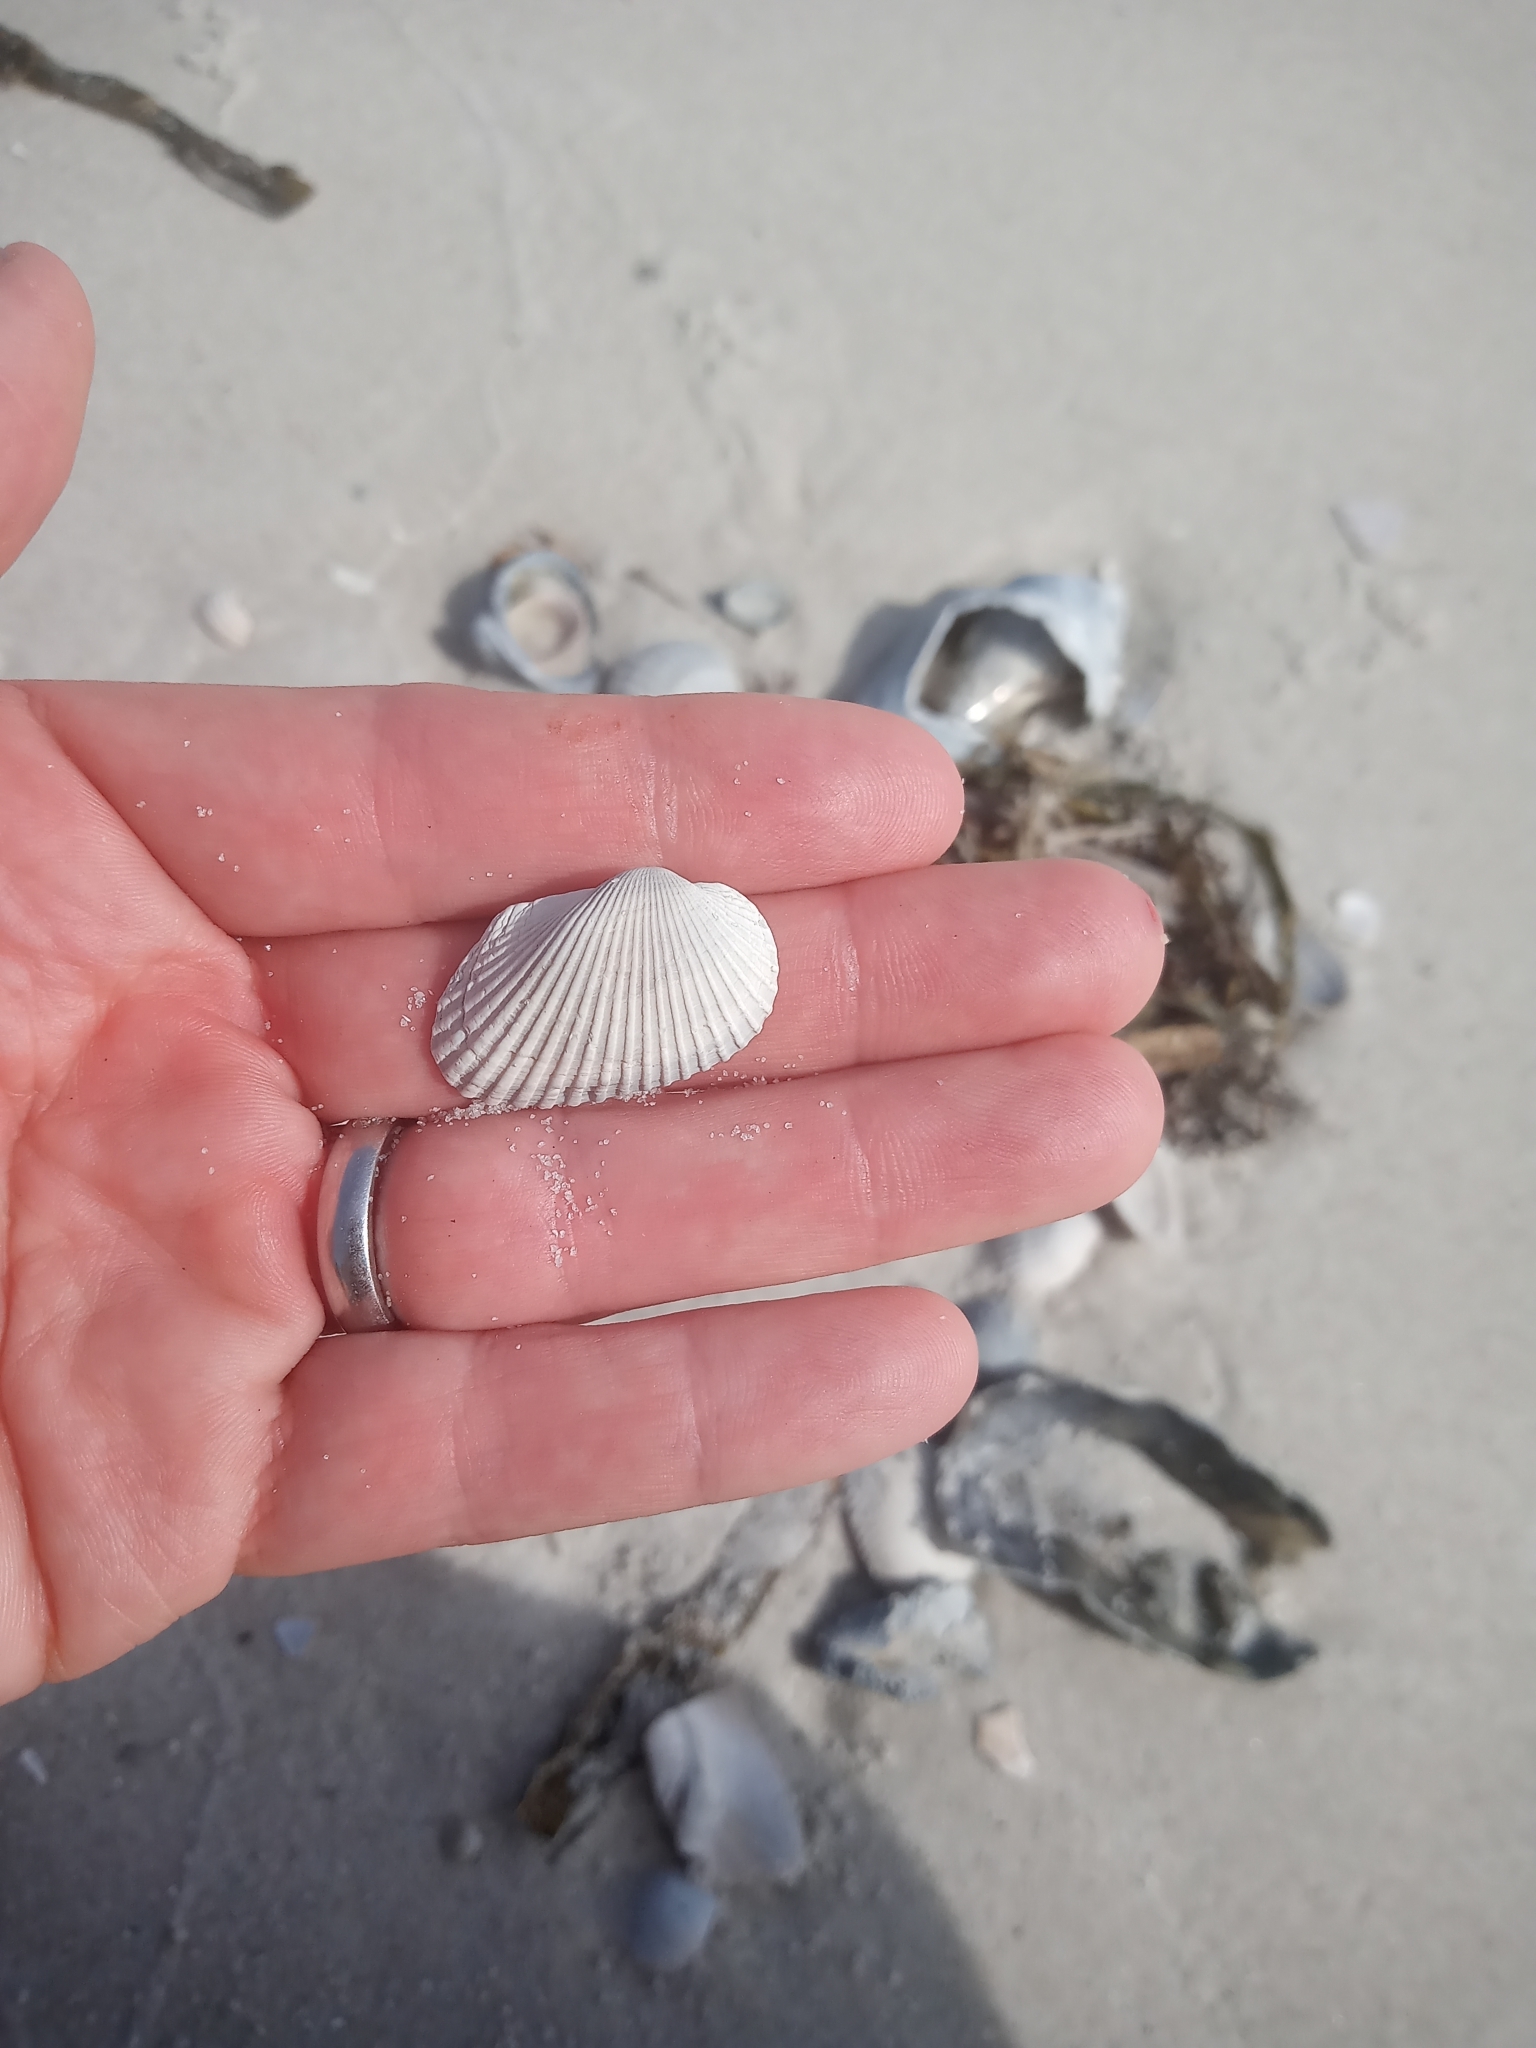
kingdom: Animalia
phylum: Mollusca
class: Bivalvia
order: Arcida
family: Arcidae
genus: Anadara
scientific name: Anadara transversa
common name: Transverse ark
